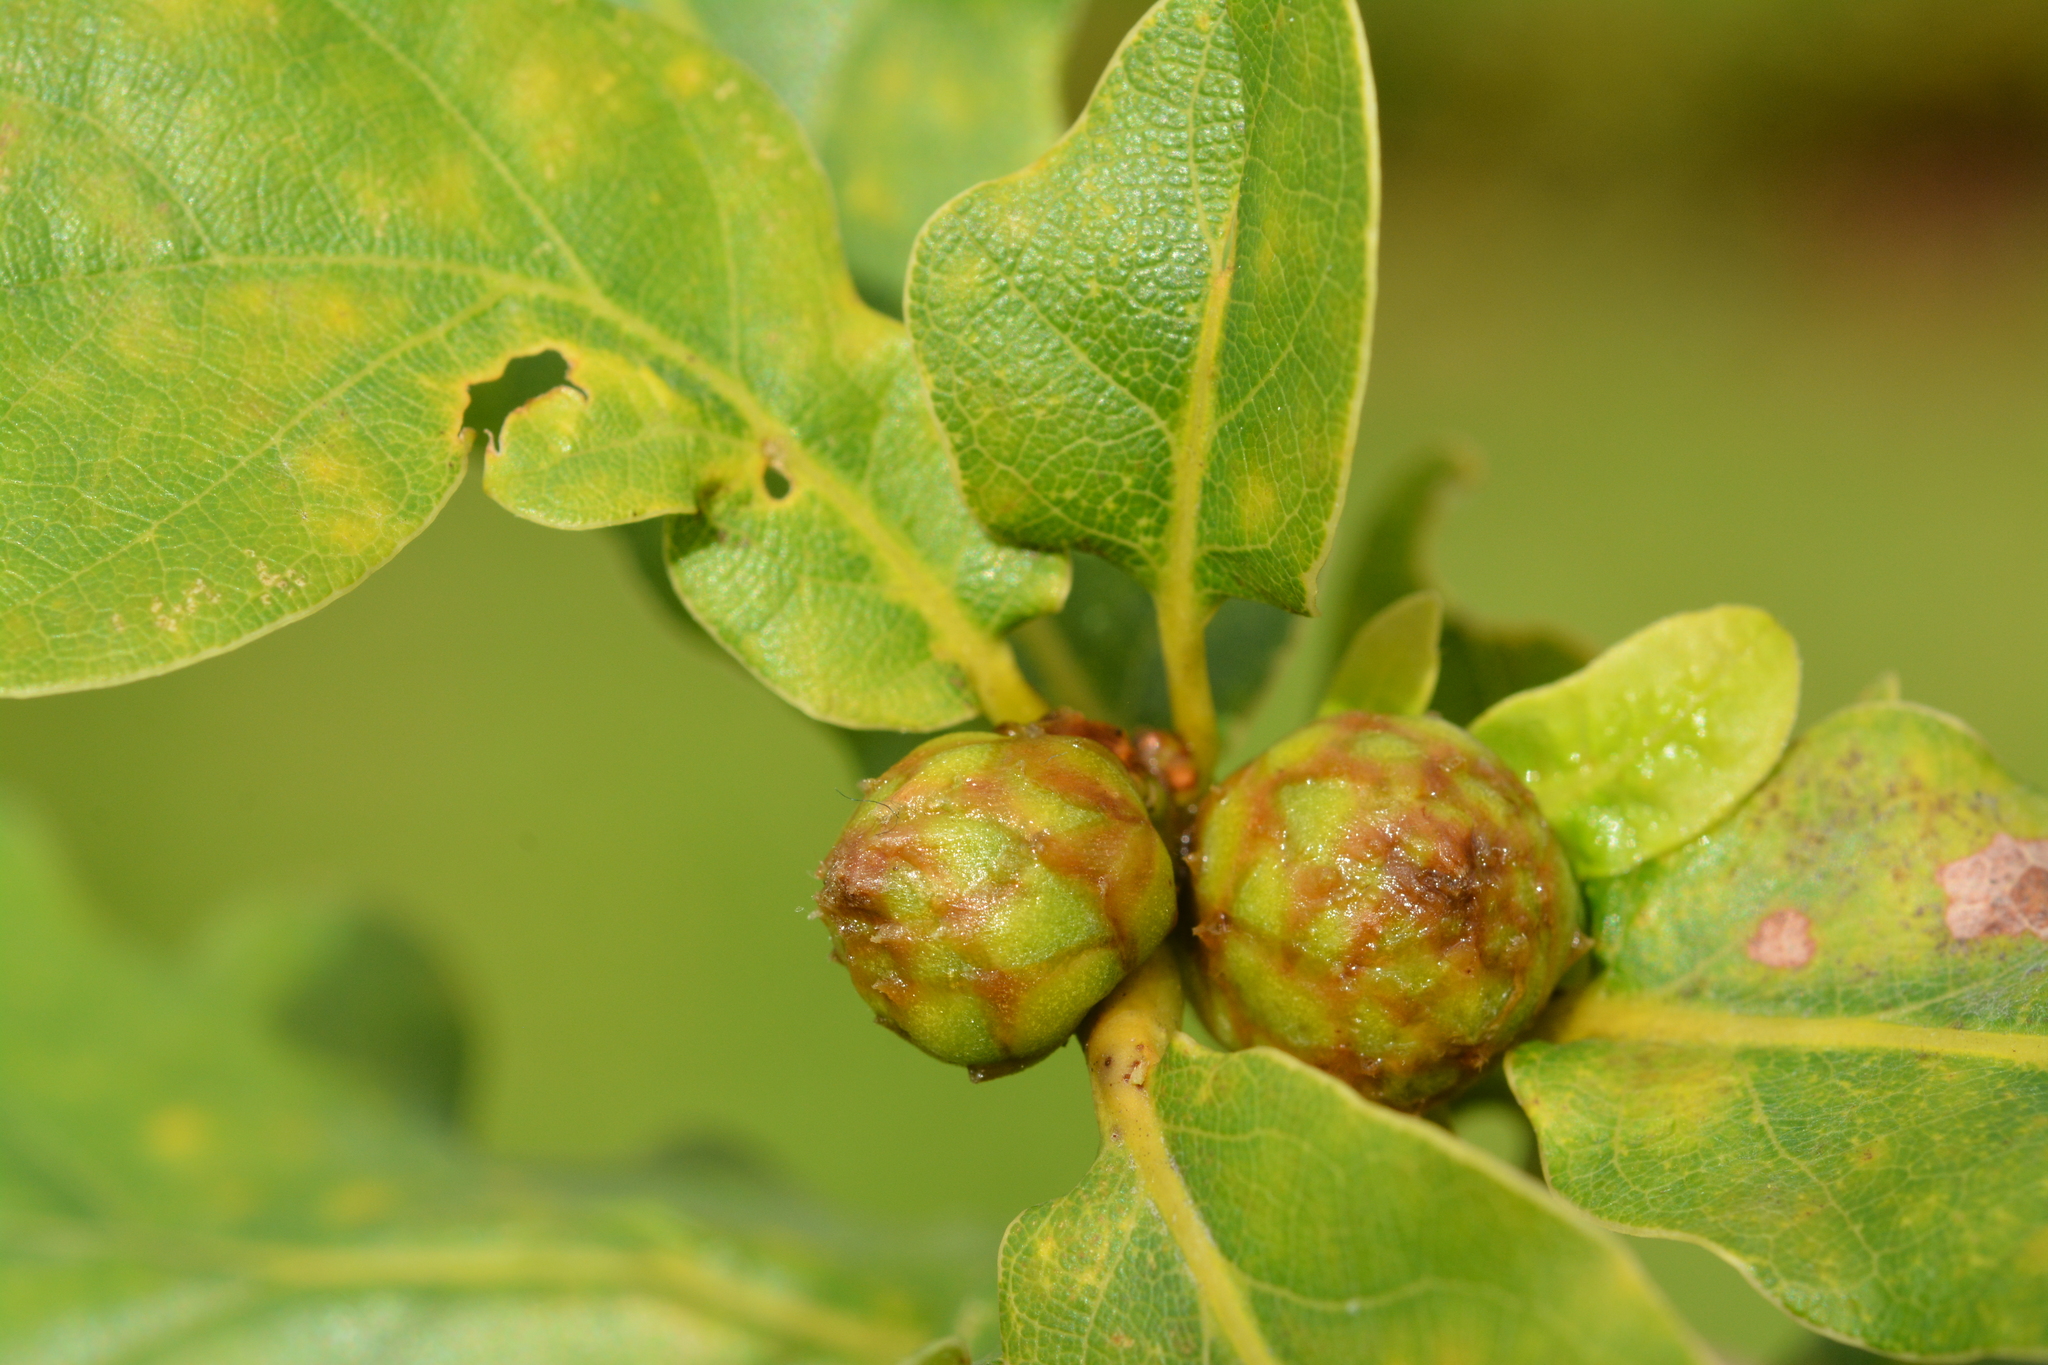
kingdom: Animalia
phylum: Arthropoda
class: Insecta
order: Hymenoptera
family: Cynipidae
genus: Andricus
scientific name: Andricus foecundatrix
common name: Artichoke gall
